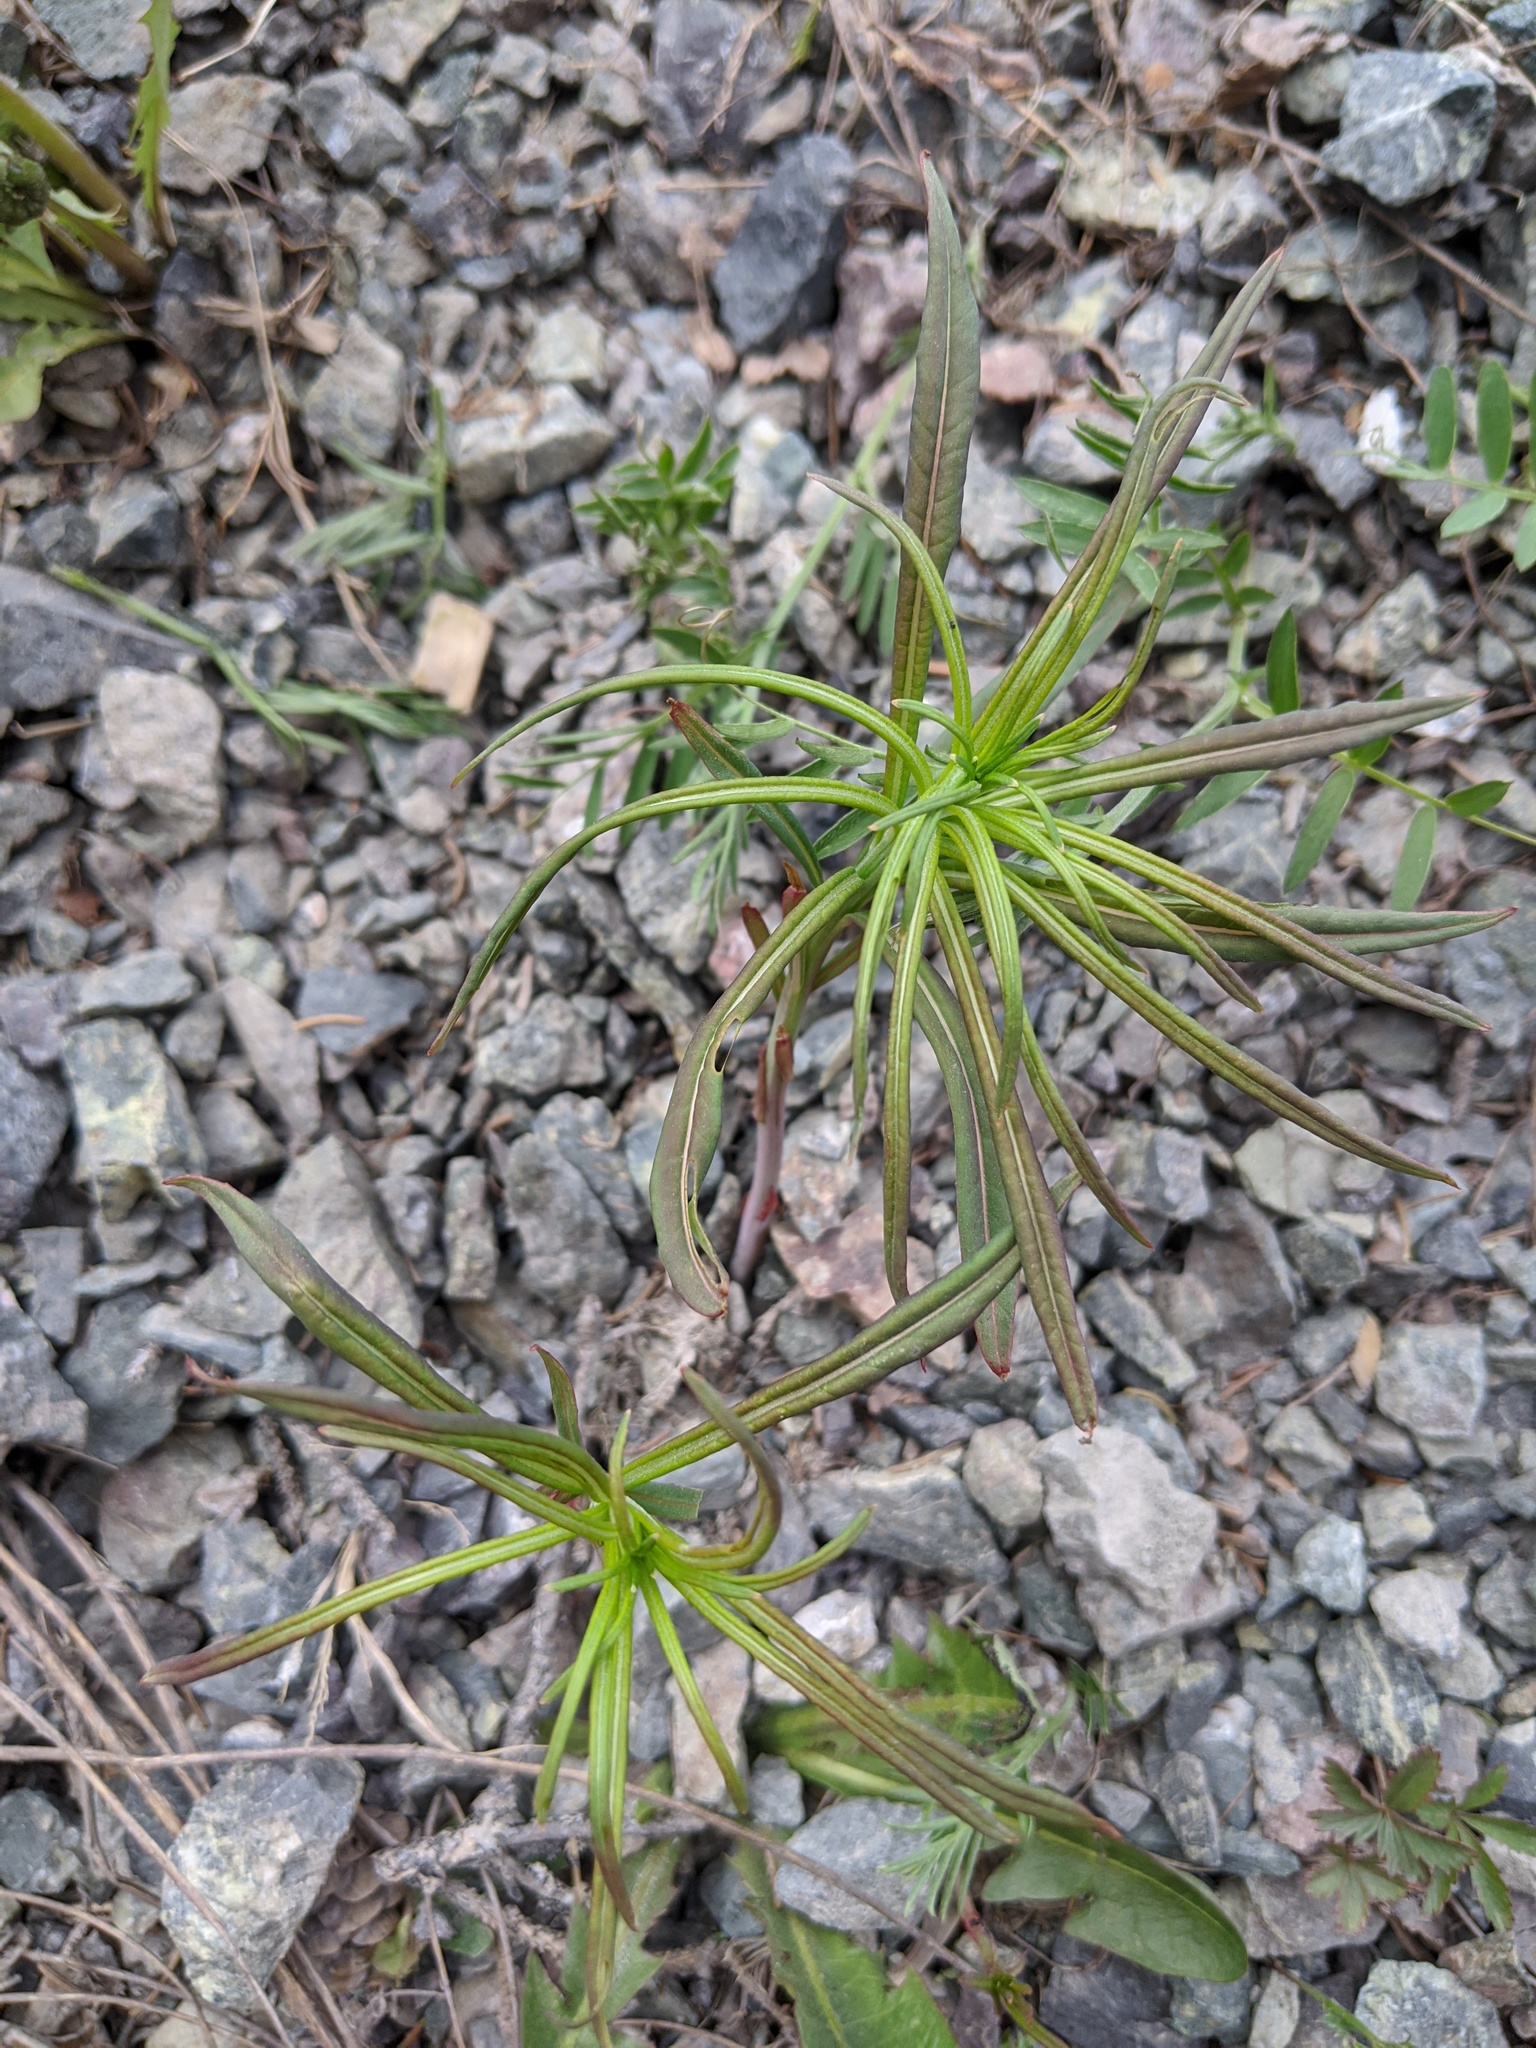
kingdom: Plantae
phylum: Tracheophyta
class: Magnoliopsida
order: Lamiales
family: Plantaginaceae
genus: Linaria
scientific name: Linaria vulgaris
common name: Butter and eggs
